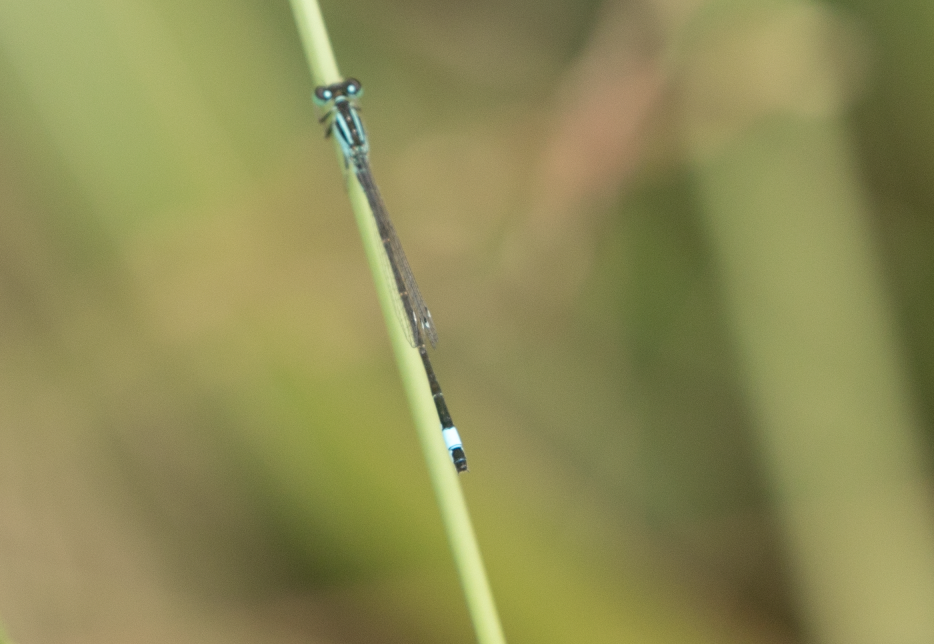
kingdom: Animalia
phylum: Arthropoda
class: Insecta
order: Odonata
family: Coenagrionidae
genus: Ischnura
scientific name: Ischnura elegans
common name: Blue-tailed damselfly
